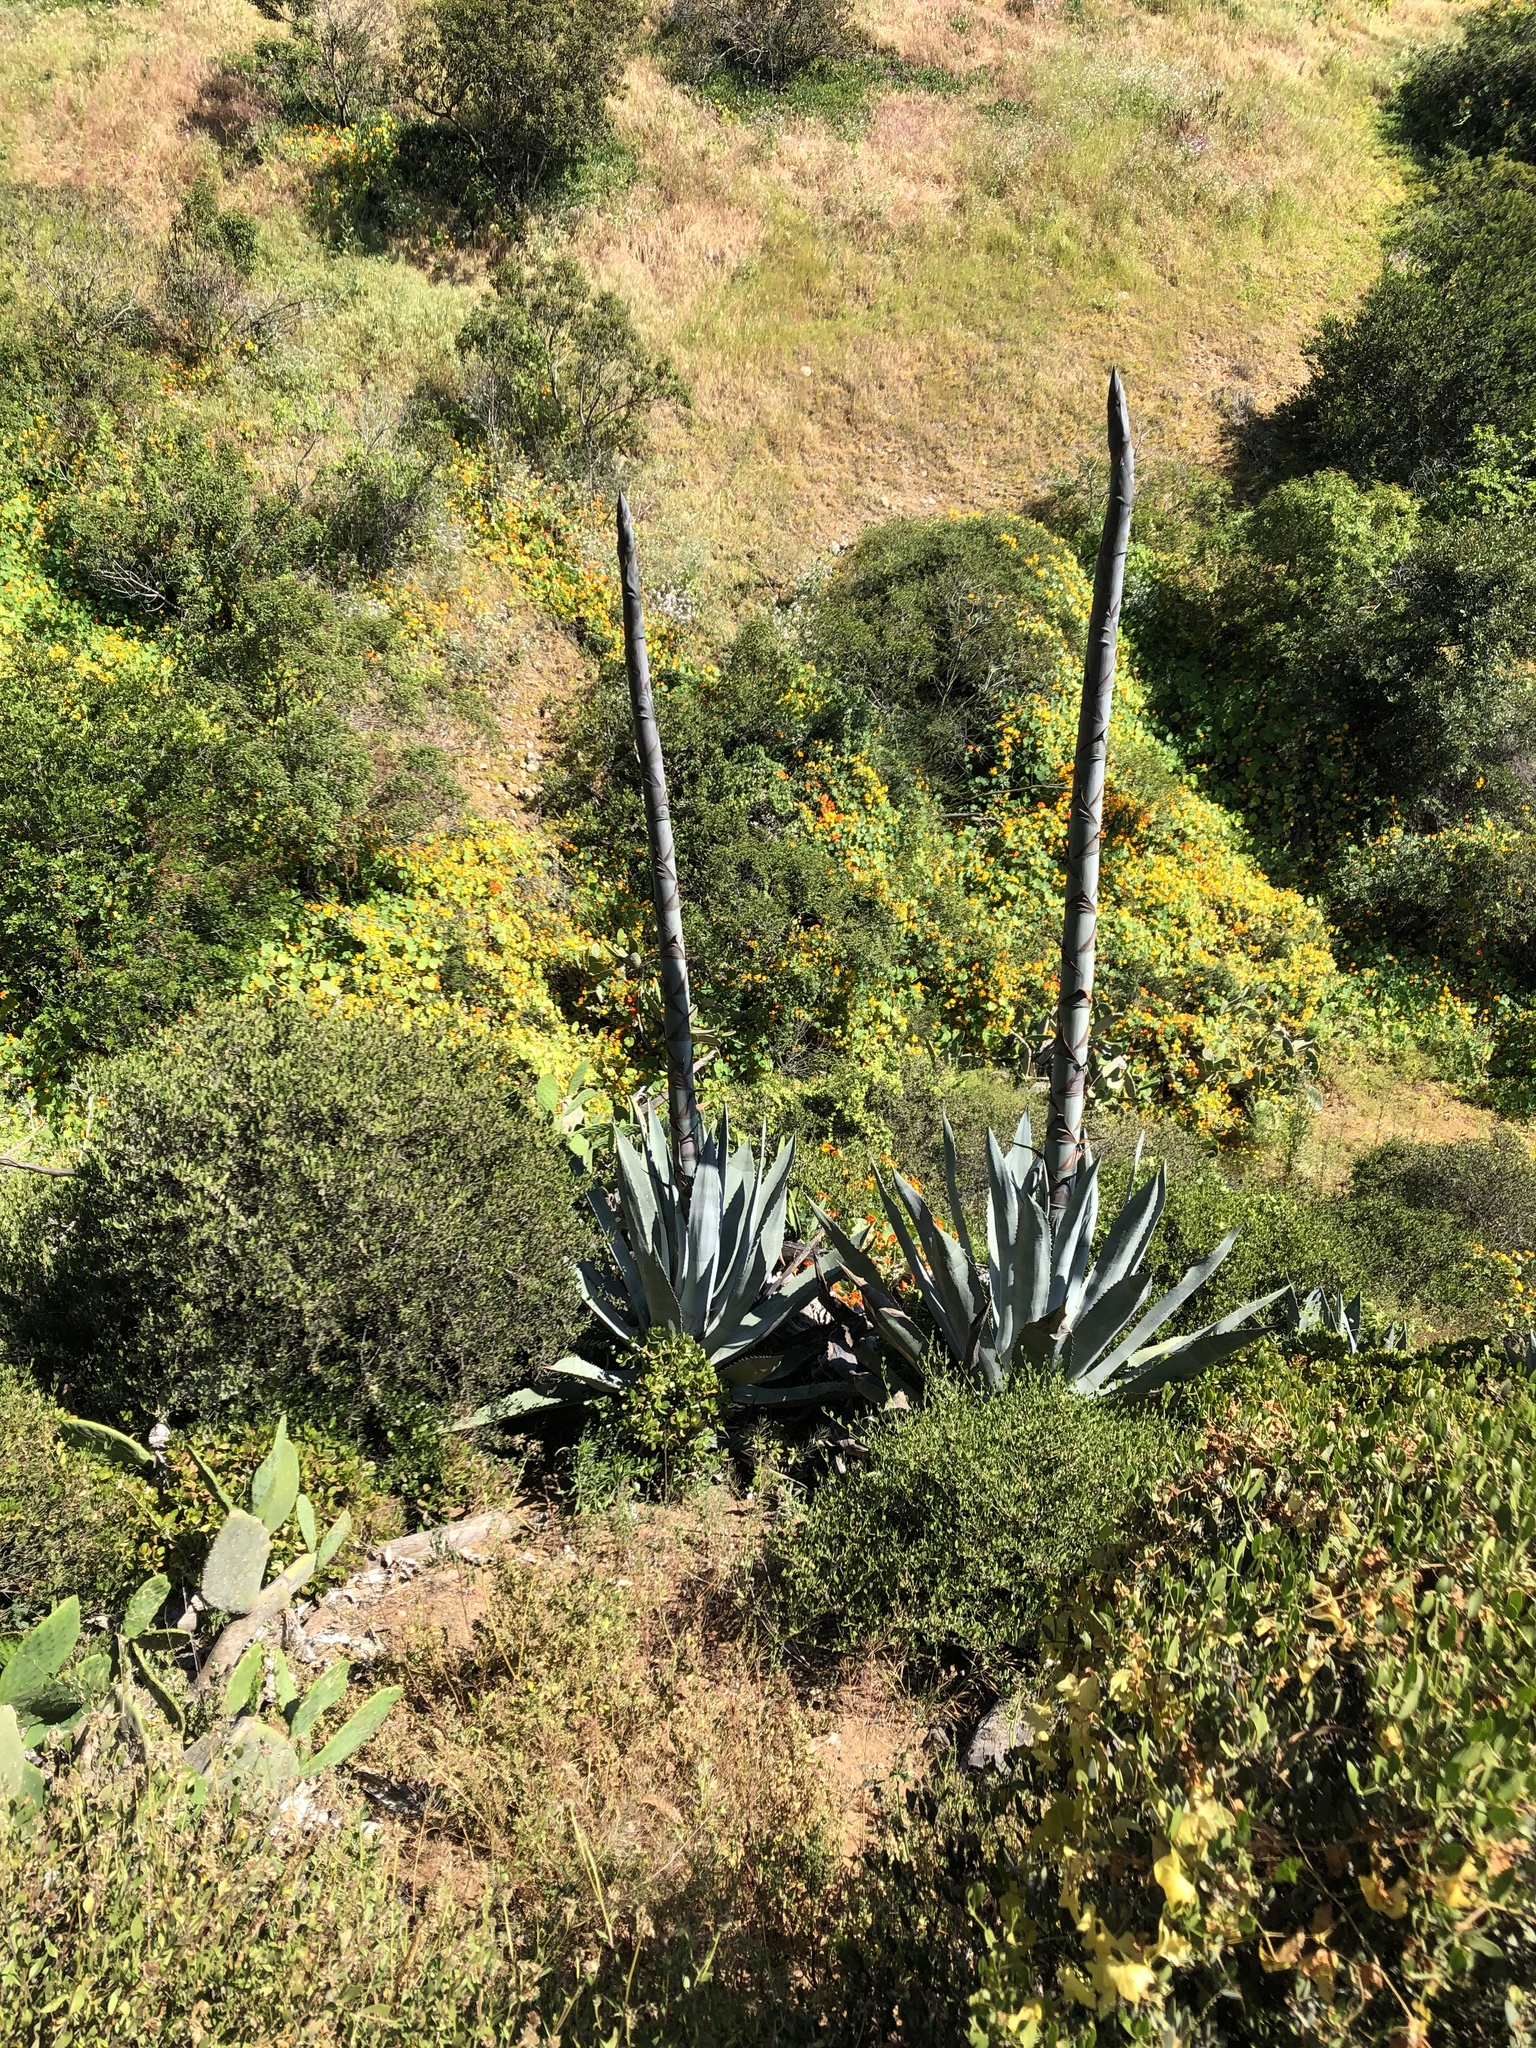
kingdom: Plantae
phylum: Tracheophyta
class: Liliopsida
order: Asparagales
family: Asparagaceae
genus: Agave
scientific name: Agave americana
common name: Centuryplant
